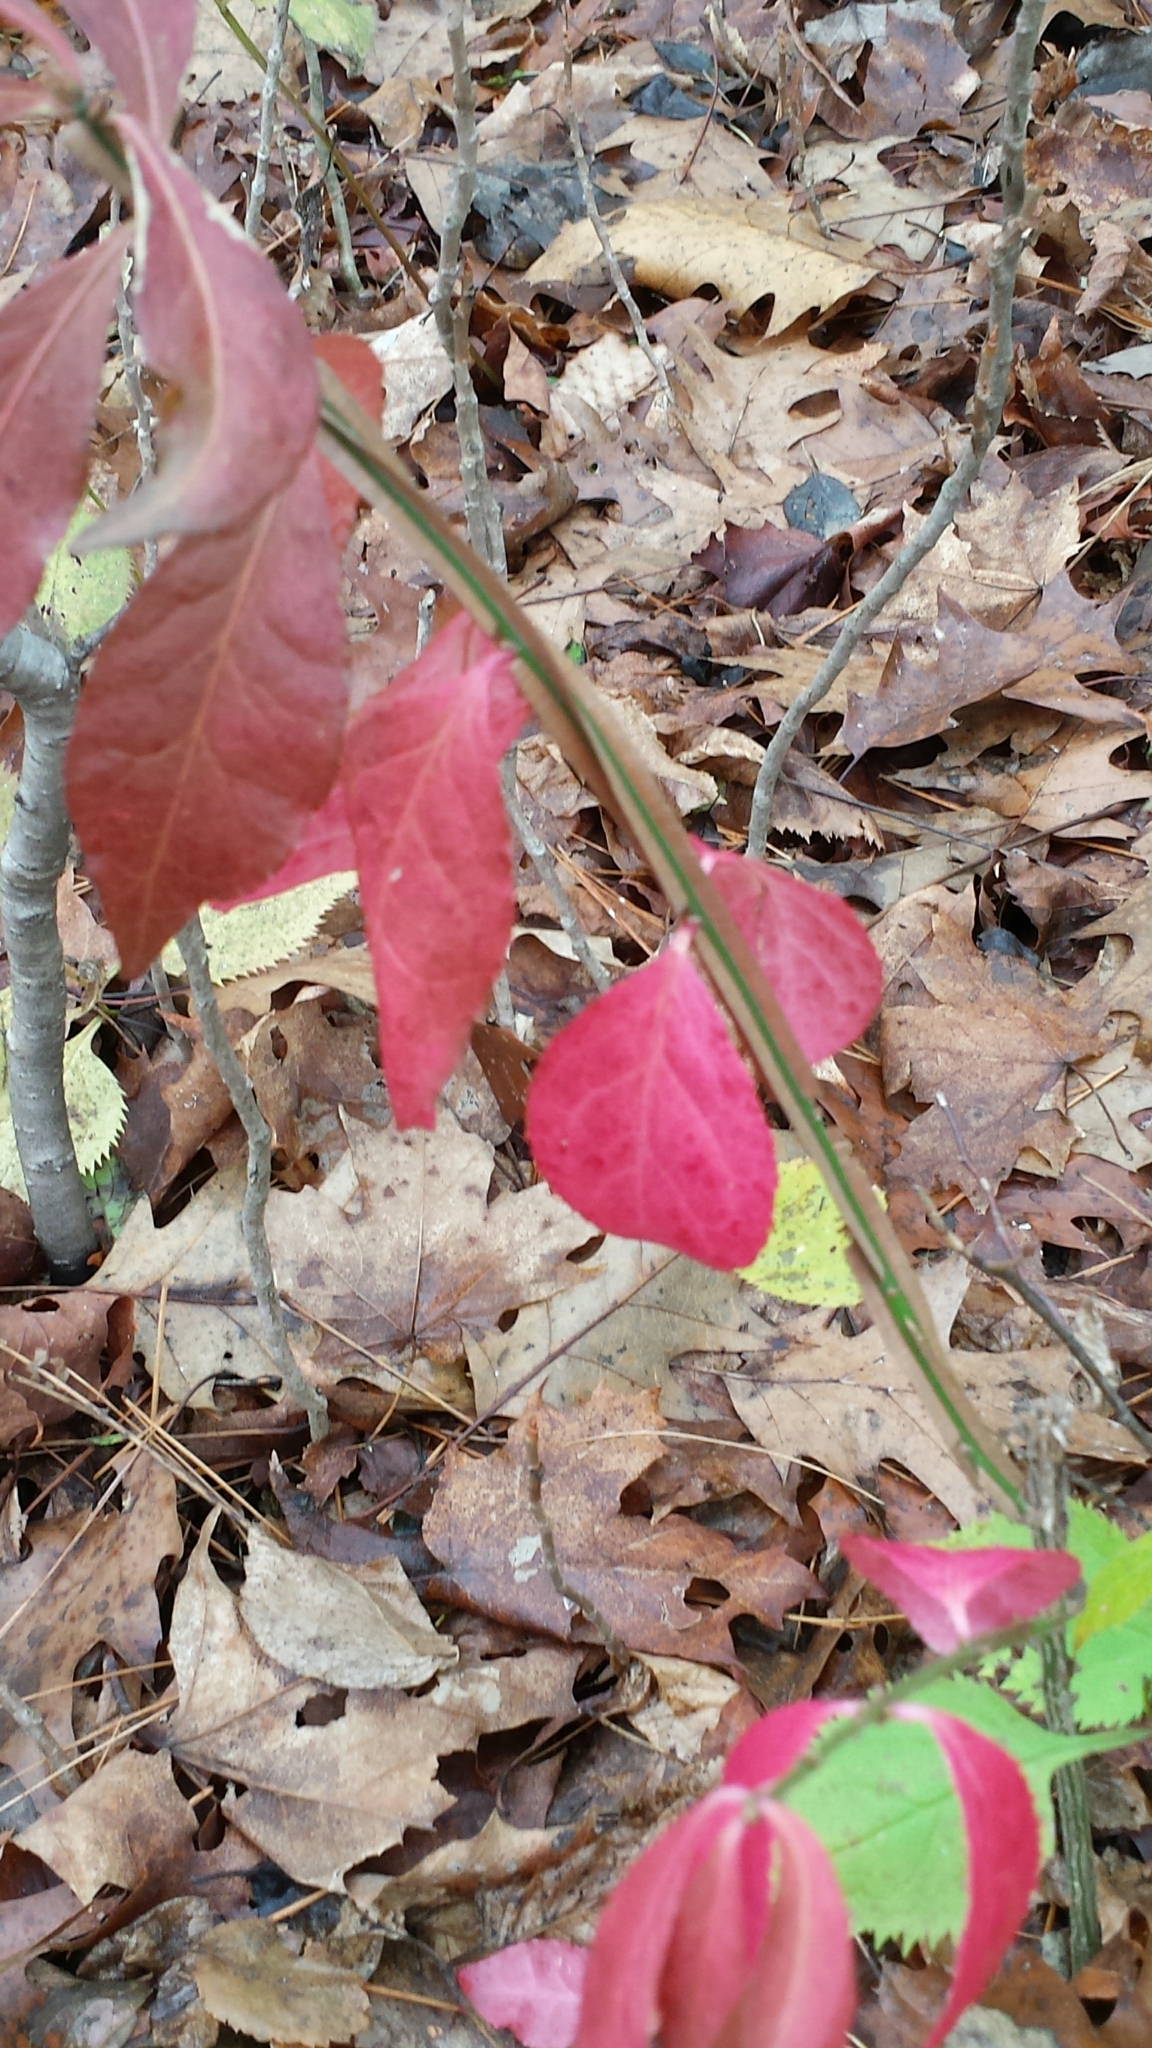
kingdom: Plantae
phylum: Tracheophyta
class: Magnoliopsida
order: Celastrales
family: Celastraceae
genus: Euonymus
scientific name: Euonymus alatus
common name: Winged euonymus
